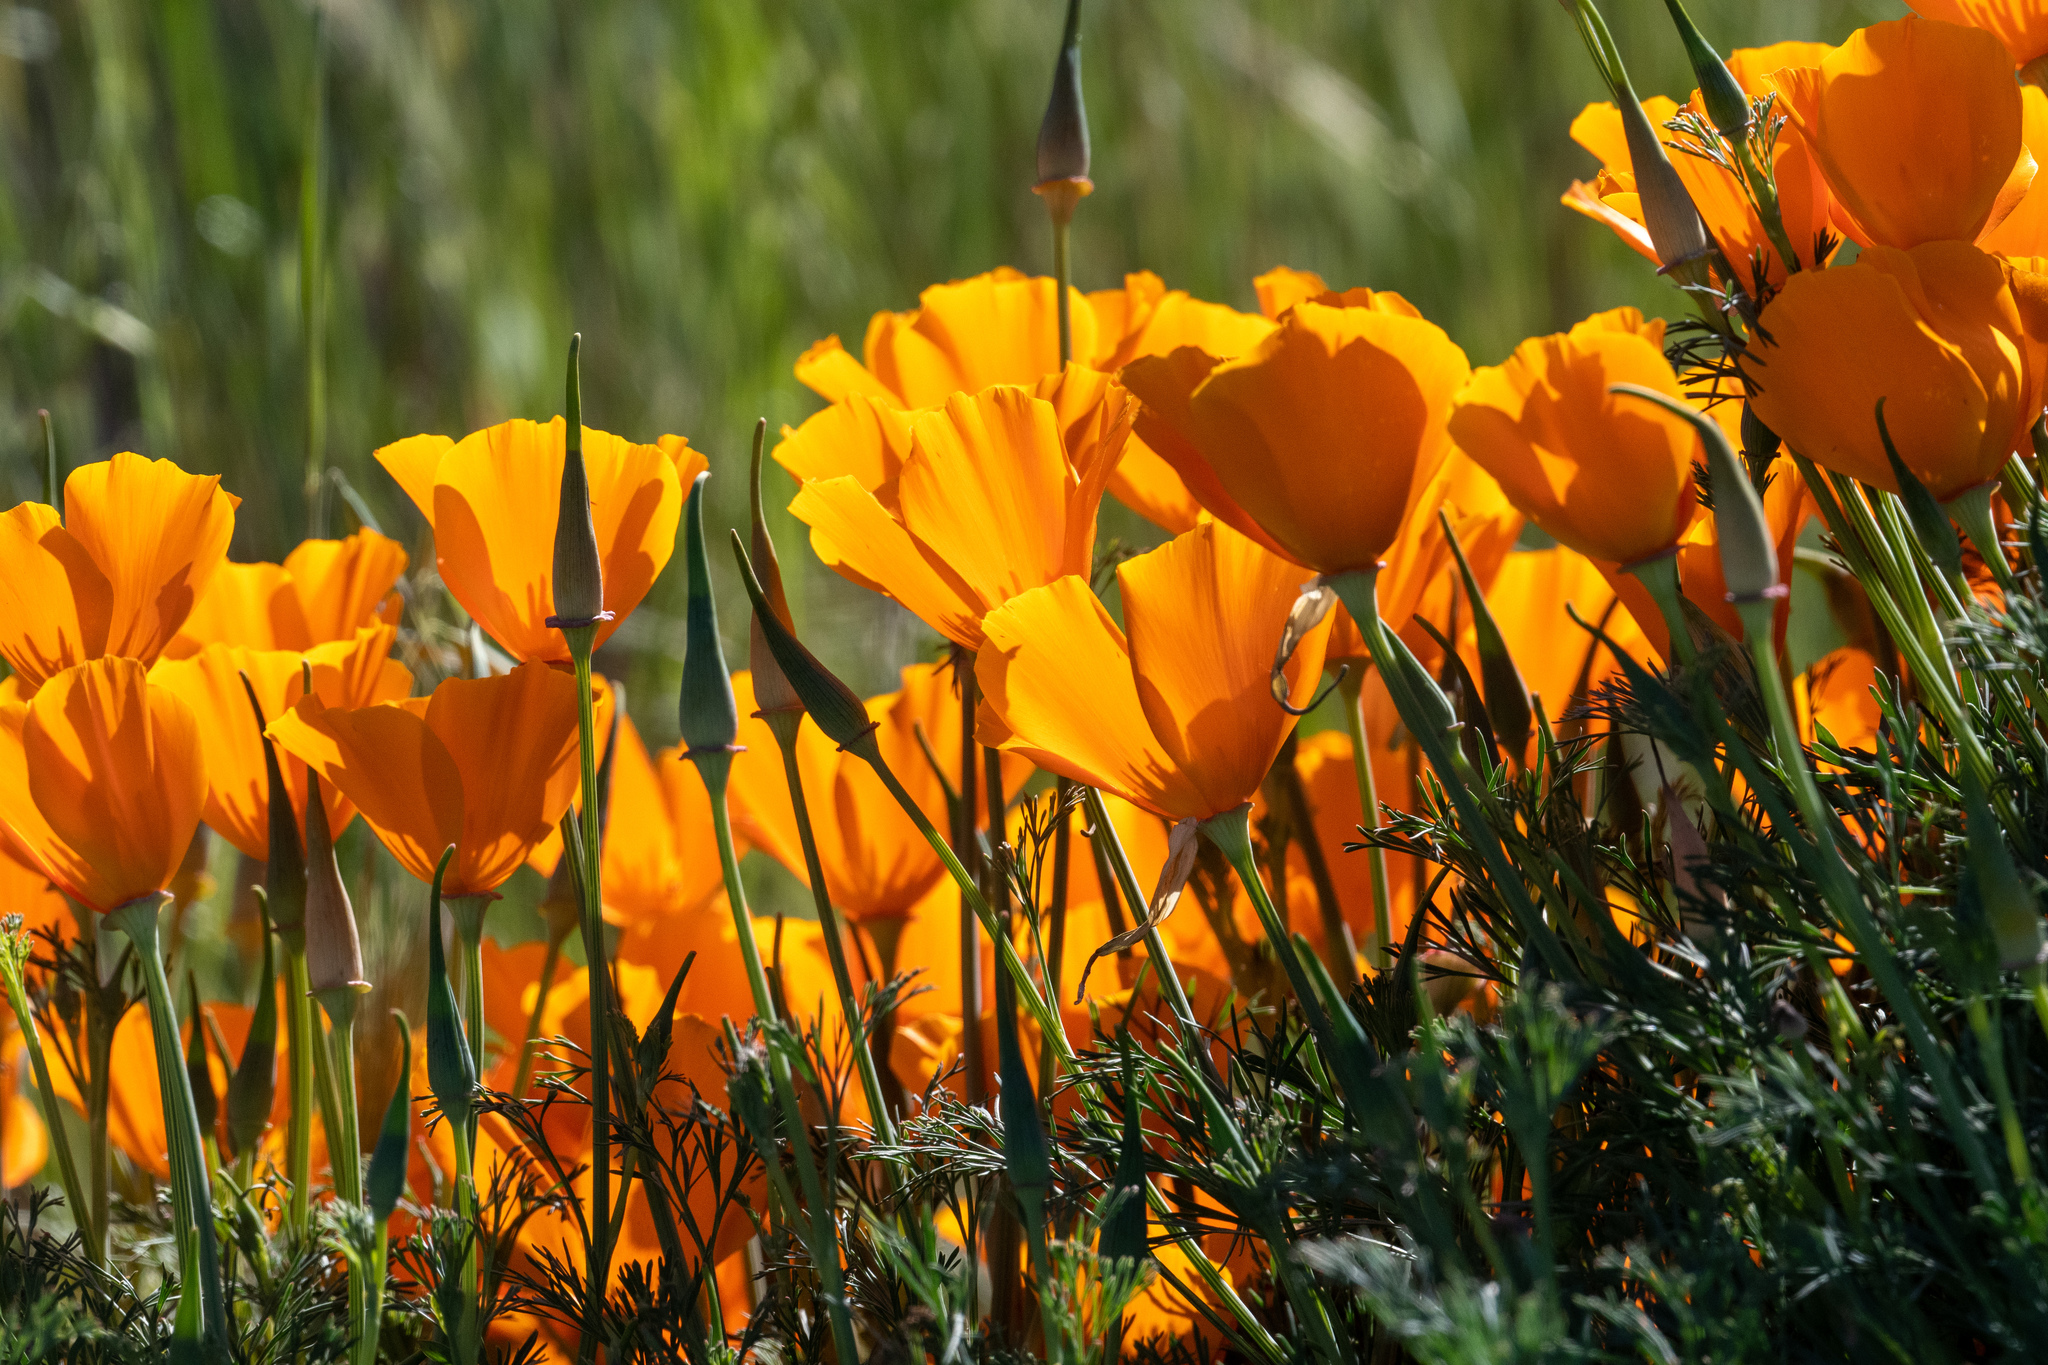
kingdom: Plantae
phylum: Tracheophyta
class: Magnoliopsida
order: Ranunculales
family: Papaveraceae
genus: Eschscholzia
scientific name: Eschscholzia californica
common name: California poppy
